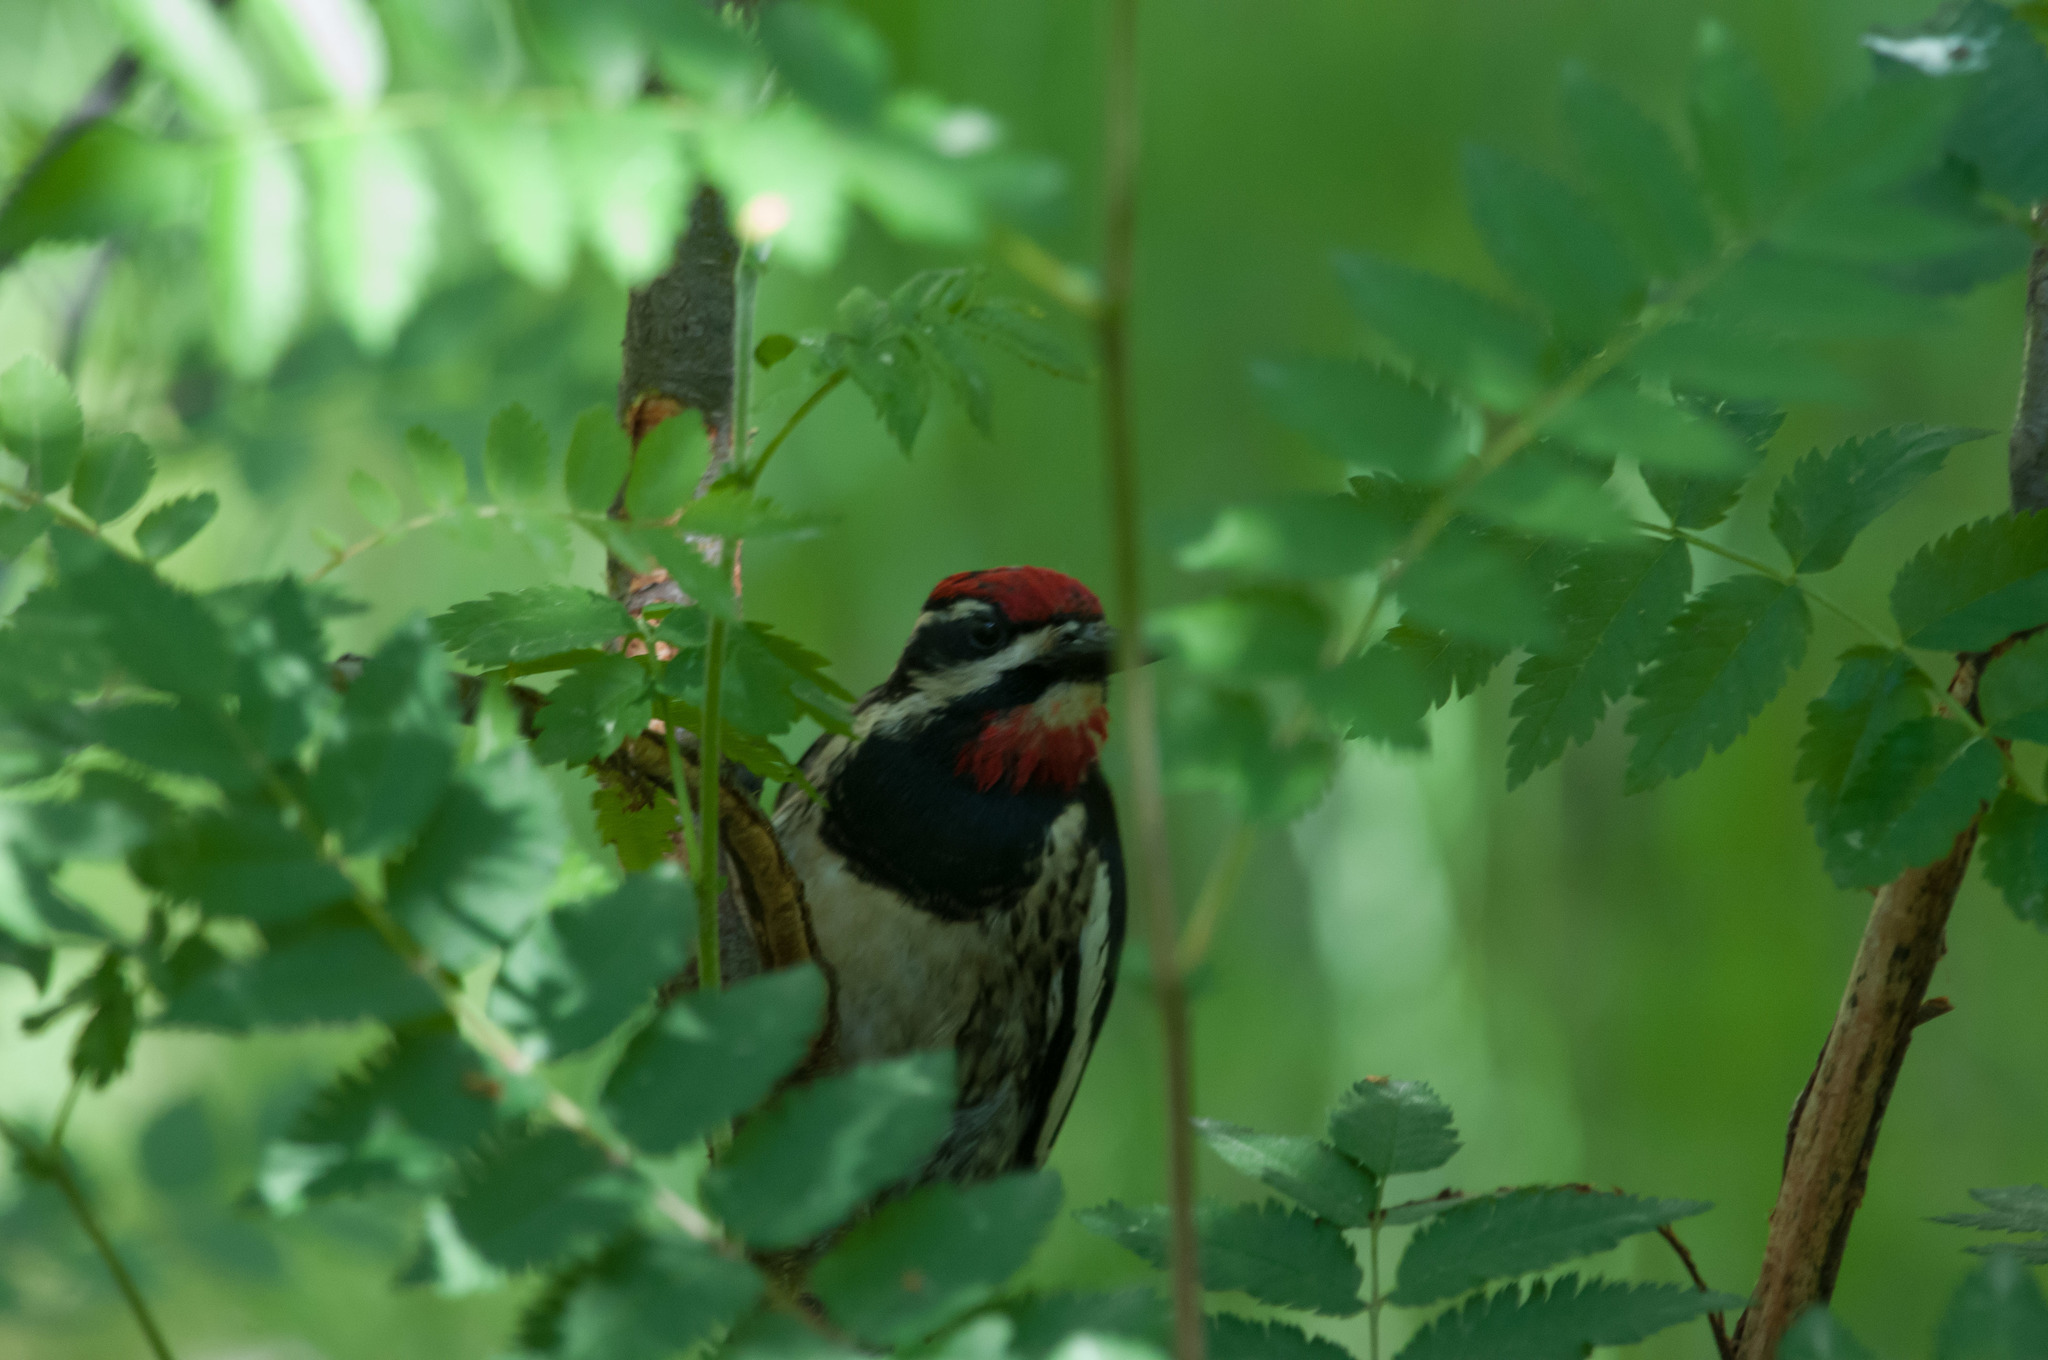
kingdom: Animalia
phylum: Chordata
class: Aves
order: Piciformes
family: Picidae
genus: Sphyrapicus
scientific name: Sphyrapicus nuchalis
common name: Red-naped sapsucker
